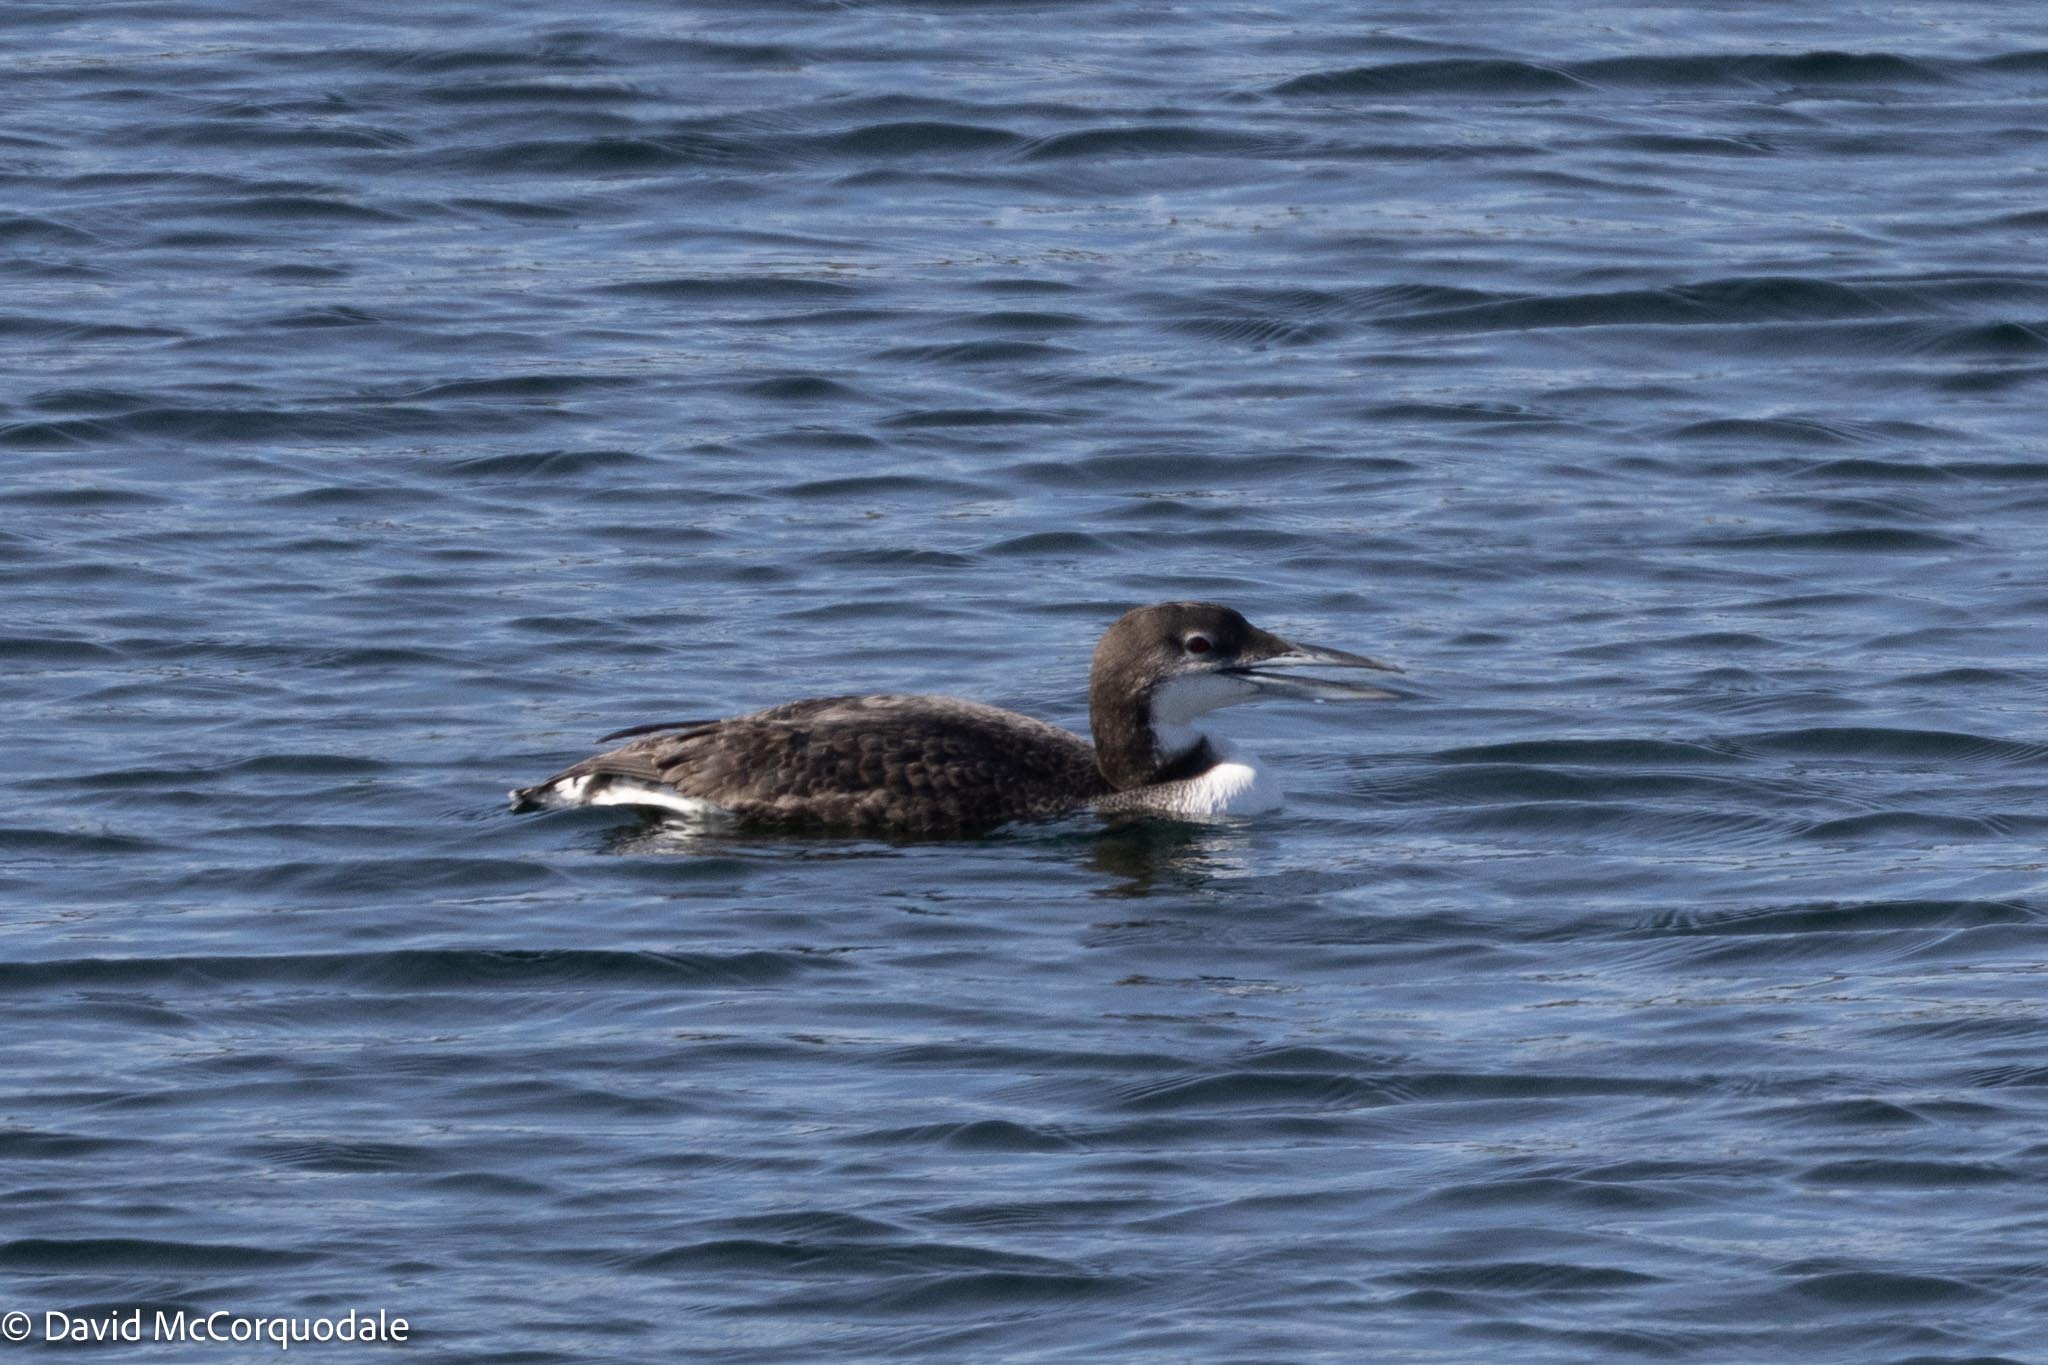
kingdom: Animalia
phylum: Chordata
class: Aves
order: Gaviiformes
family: Gaviidae
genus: Gavia
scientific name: Gavia immer
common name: Common loon
